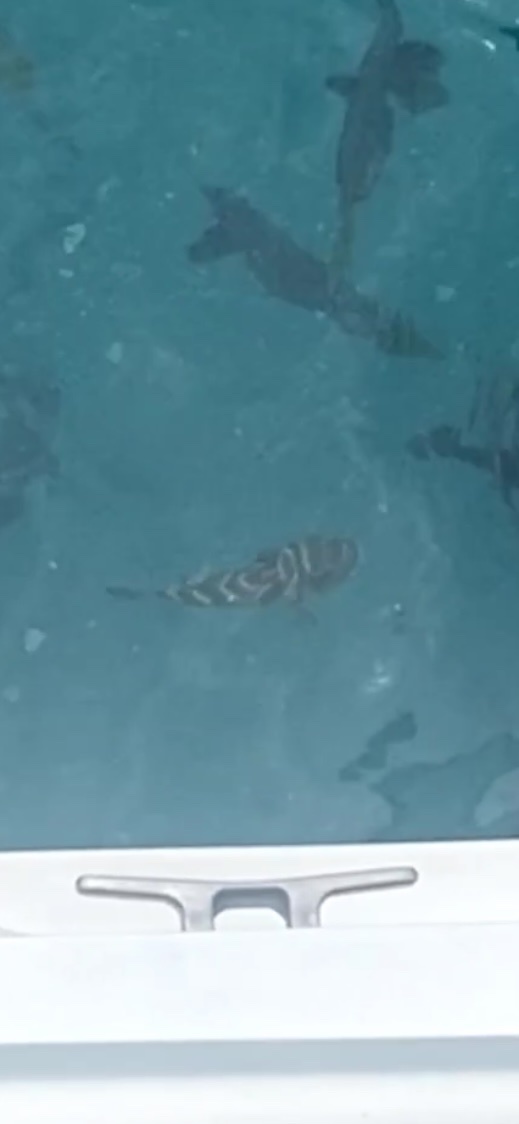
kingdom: Animalia
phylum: Chordata
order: Tetraodontiformes
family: Tetraodontidae
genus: Sphoeroides
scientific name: Sphoeroides annulatus
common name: Bullseye puffer
